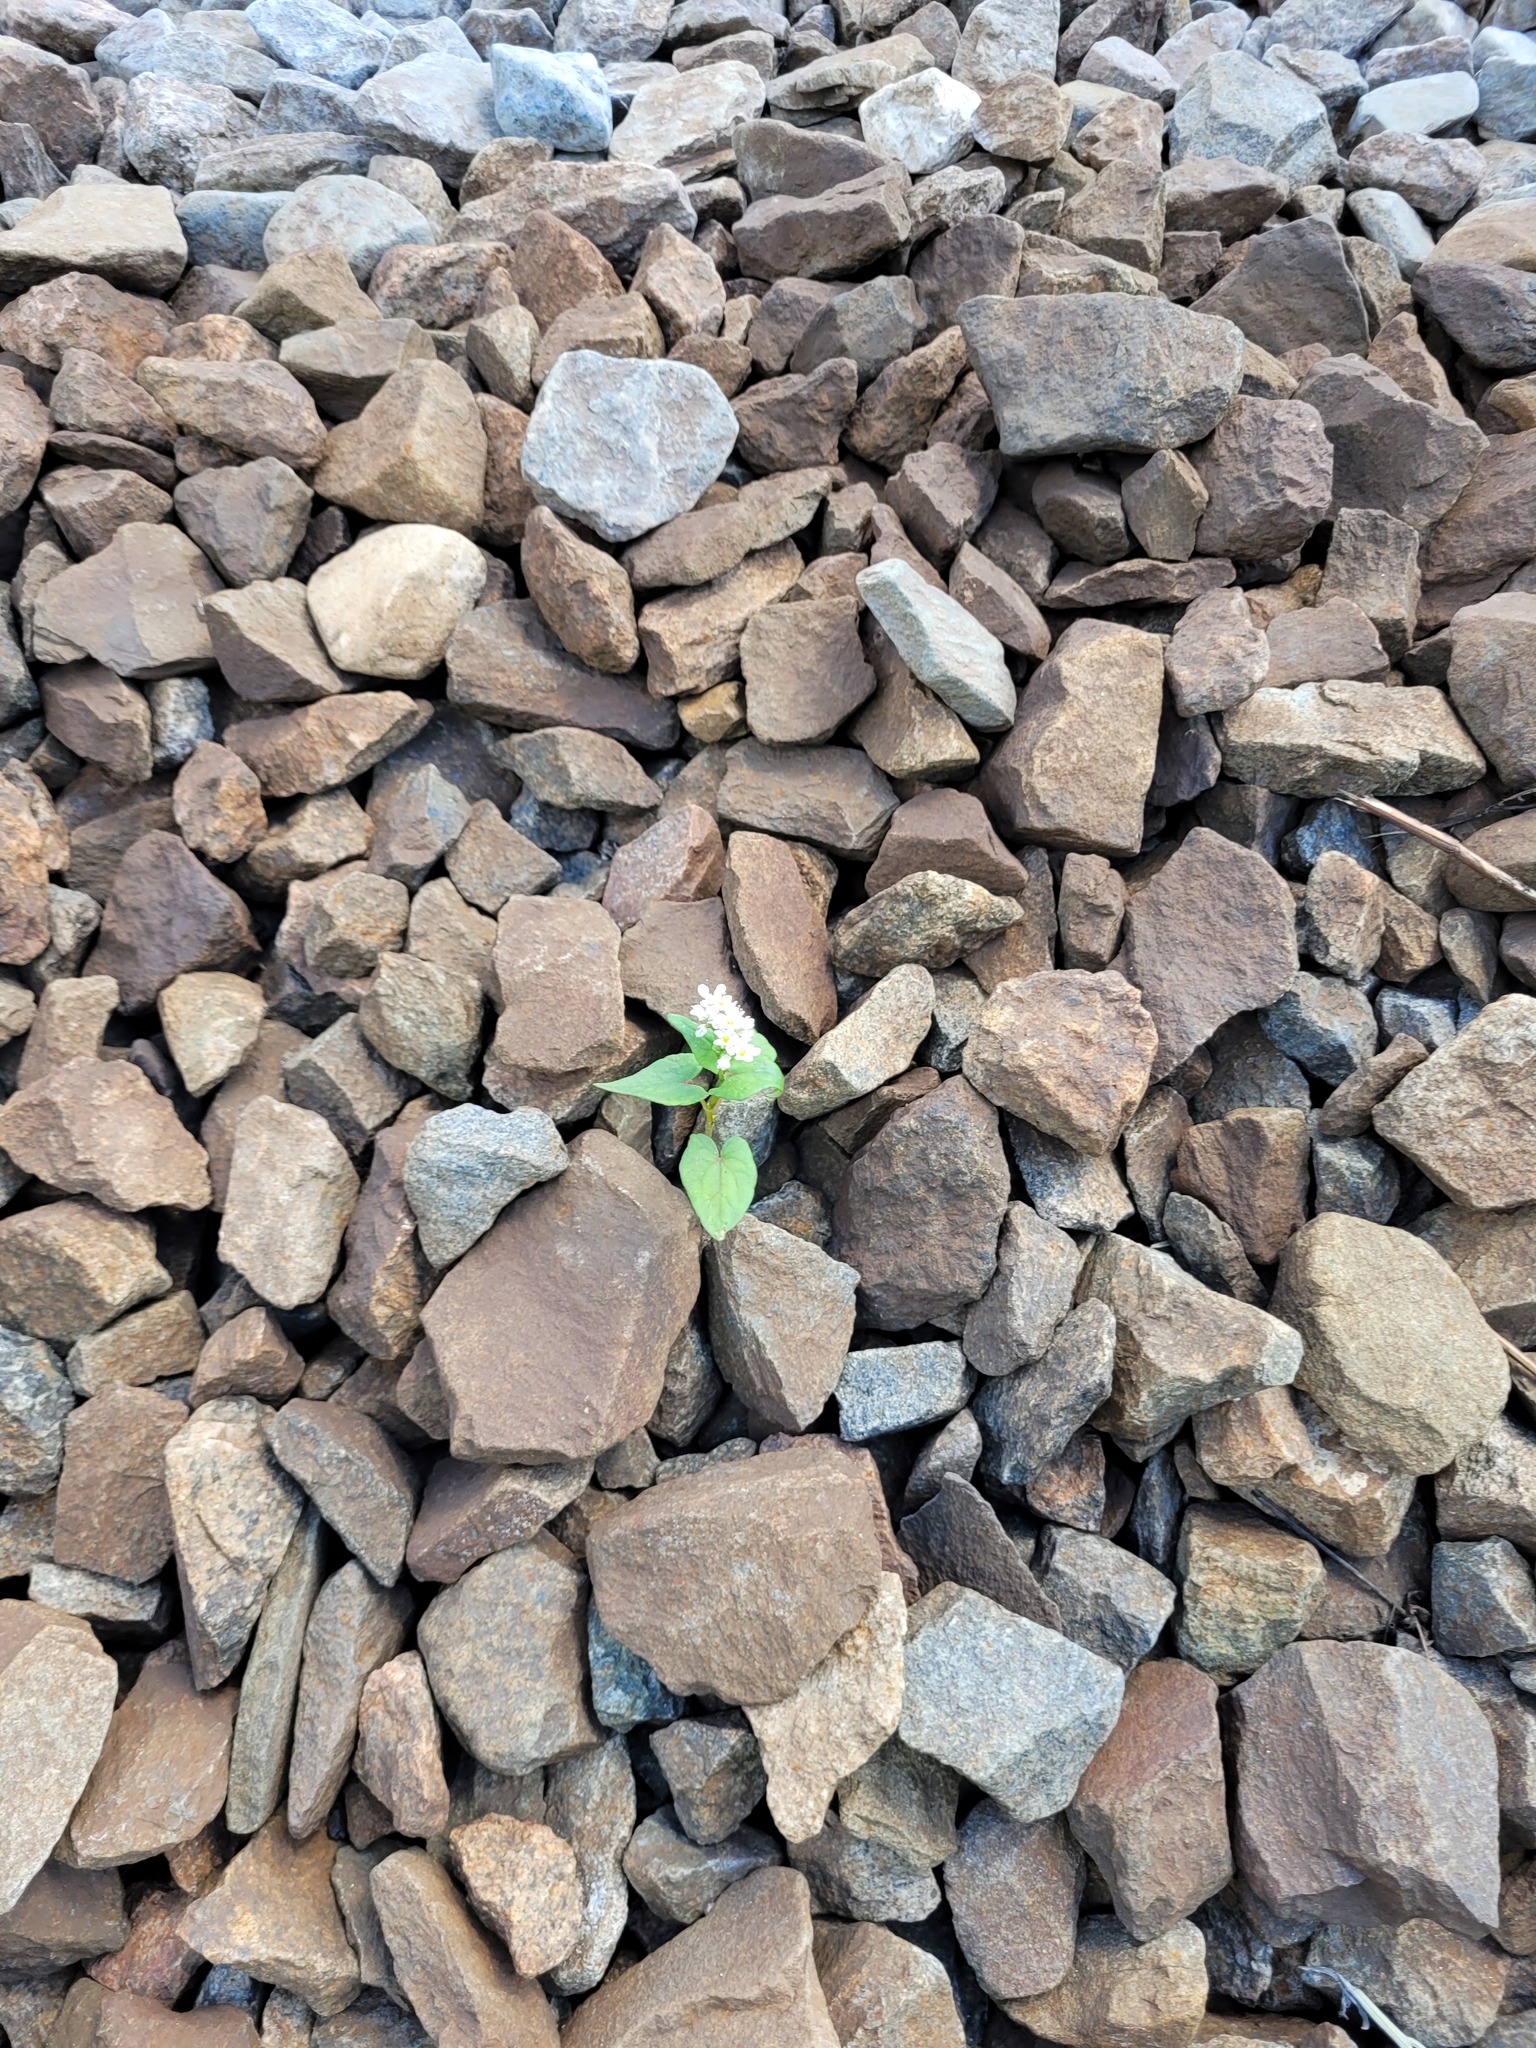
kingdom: Plantae
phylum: Tracheophyta
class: Magnoliopsida
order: Caryophyllales
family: Polygonaceae
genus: Fagopyrum
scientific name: Fagopyrum esculentum
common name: Buckwheat
